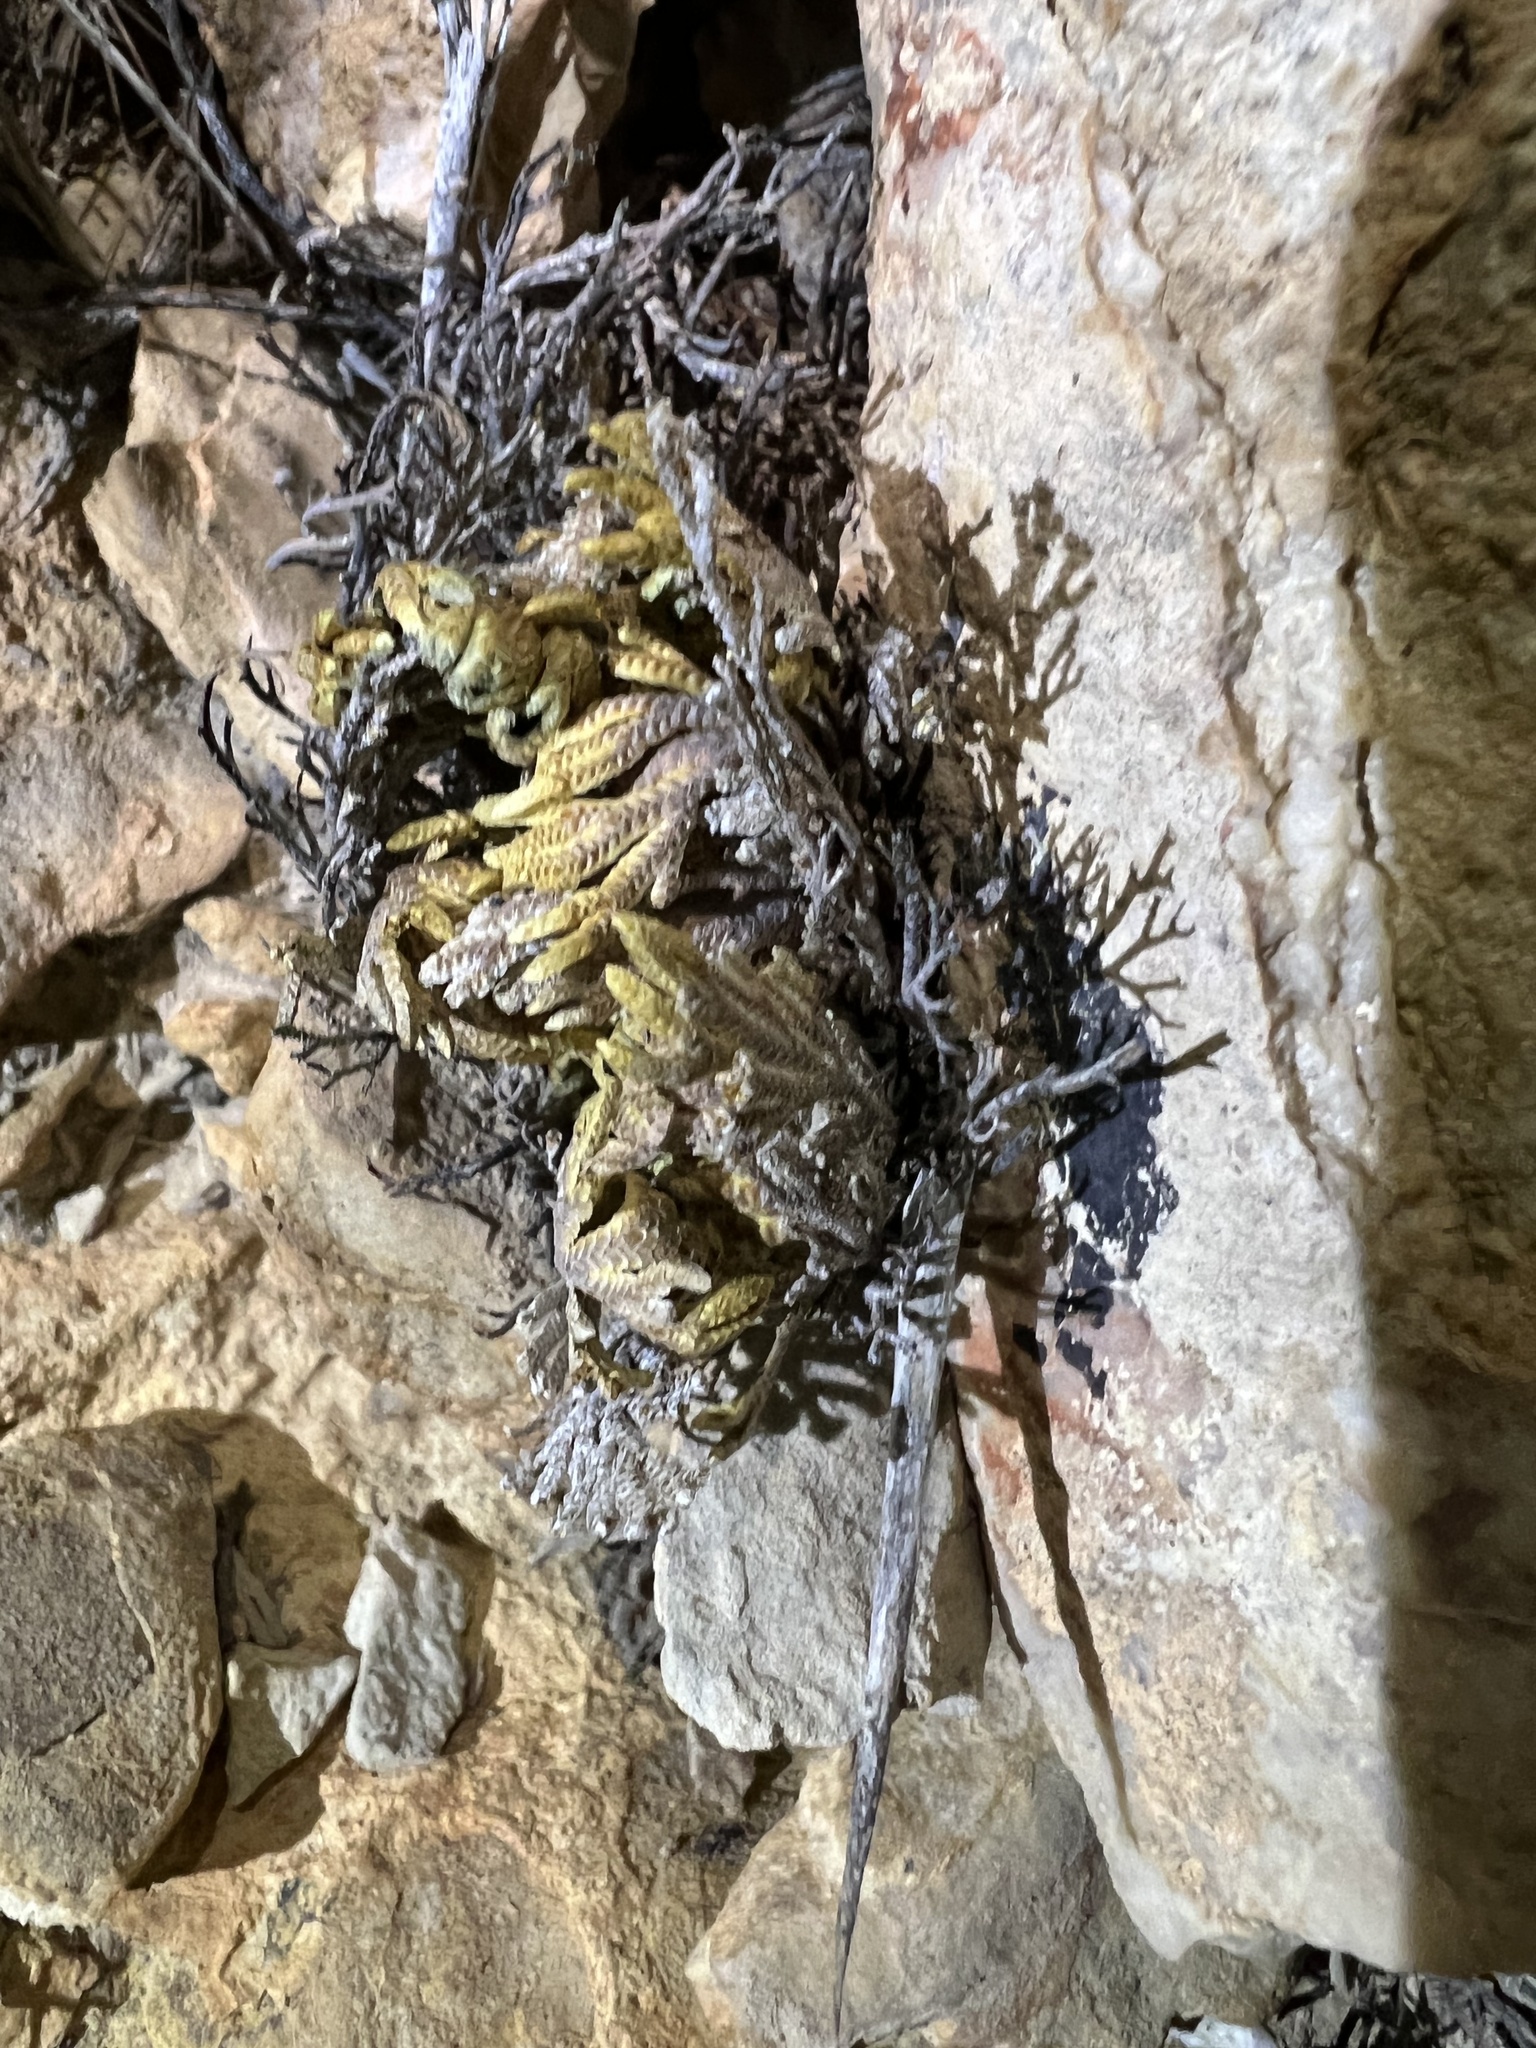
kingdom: Plantae
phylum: Tracheophyta
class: Lycopodiopsida
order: Selaginellales
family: Selaginellaceae
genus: Selaginella
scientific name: Selaginella lepidophylla
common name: Rose-of-jericho
